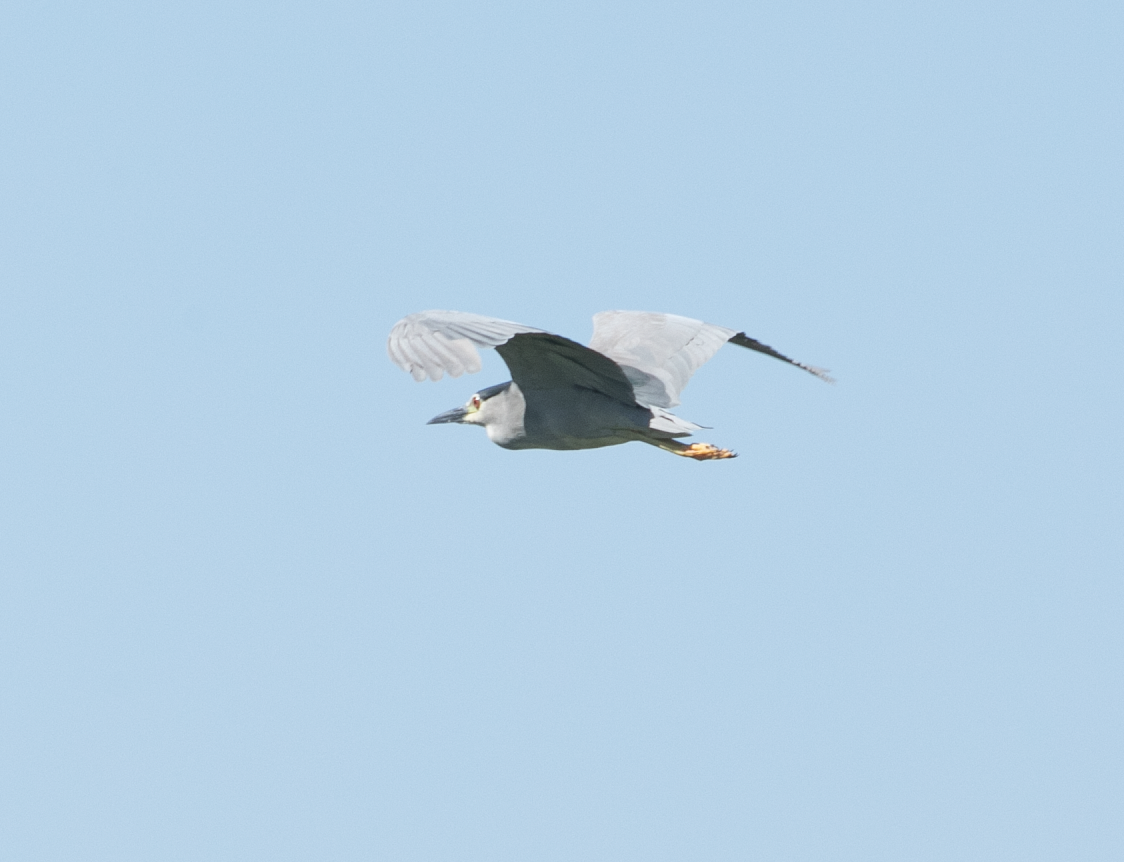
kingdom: Animalia
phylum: Chordata
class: Aves
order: Pelecaniformes
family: Ardeidae
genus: Nycticorax
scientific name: Nycticorax nycticorax
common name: Black-crowned night heron
